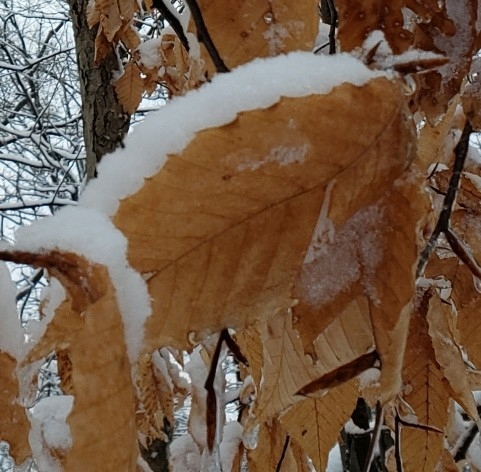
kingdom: Plantae
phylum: Tracheophyta
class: Magnoliopsida
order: Fagales
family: Fagaceae
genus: Fagus
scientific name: Fagus grandifolia
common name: American beech
